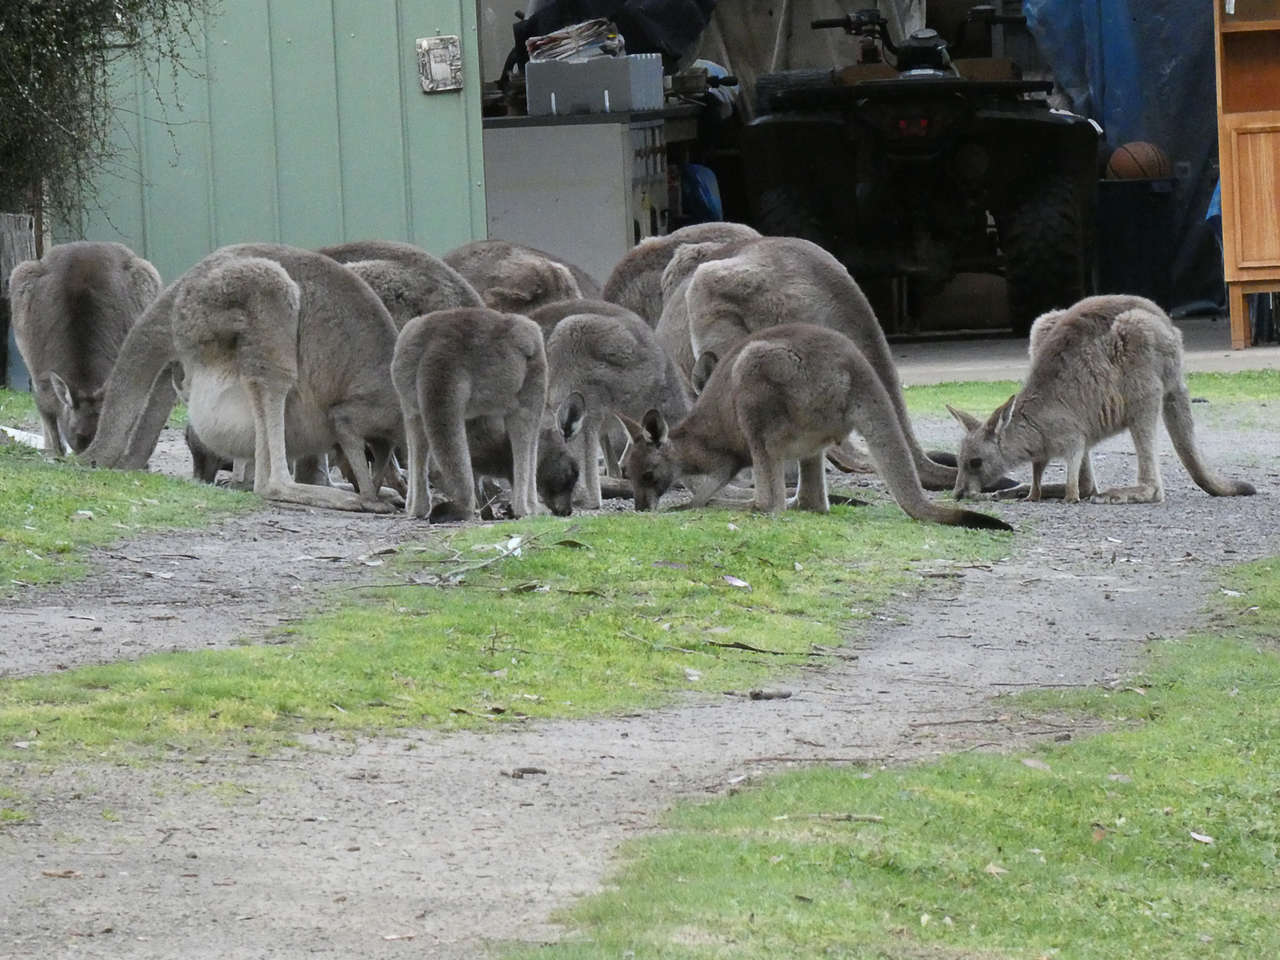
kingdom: Animalia
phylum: Chordata
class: Mammalia
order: Diprotodontia
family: Macropodidae
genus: Macropus
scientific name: Macropus giganteus
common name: Eastern grey kangaroo
